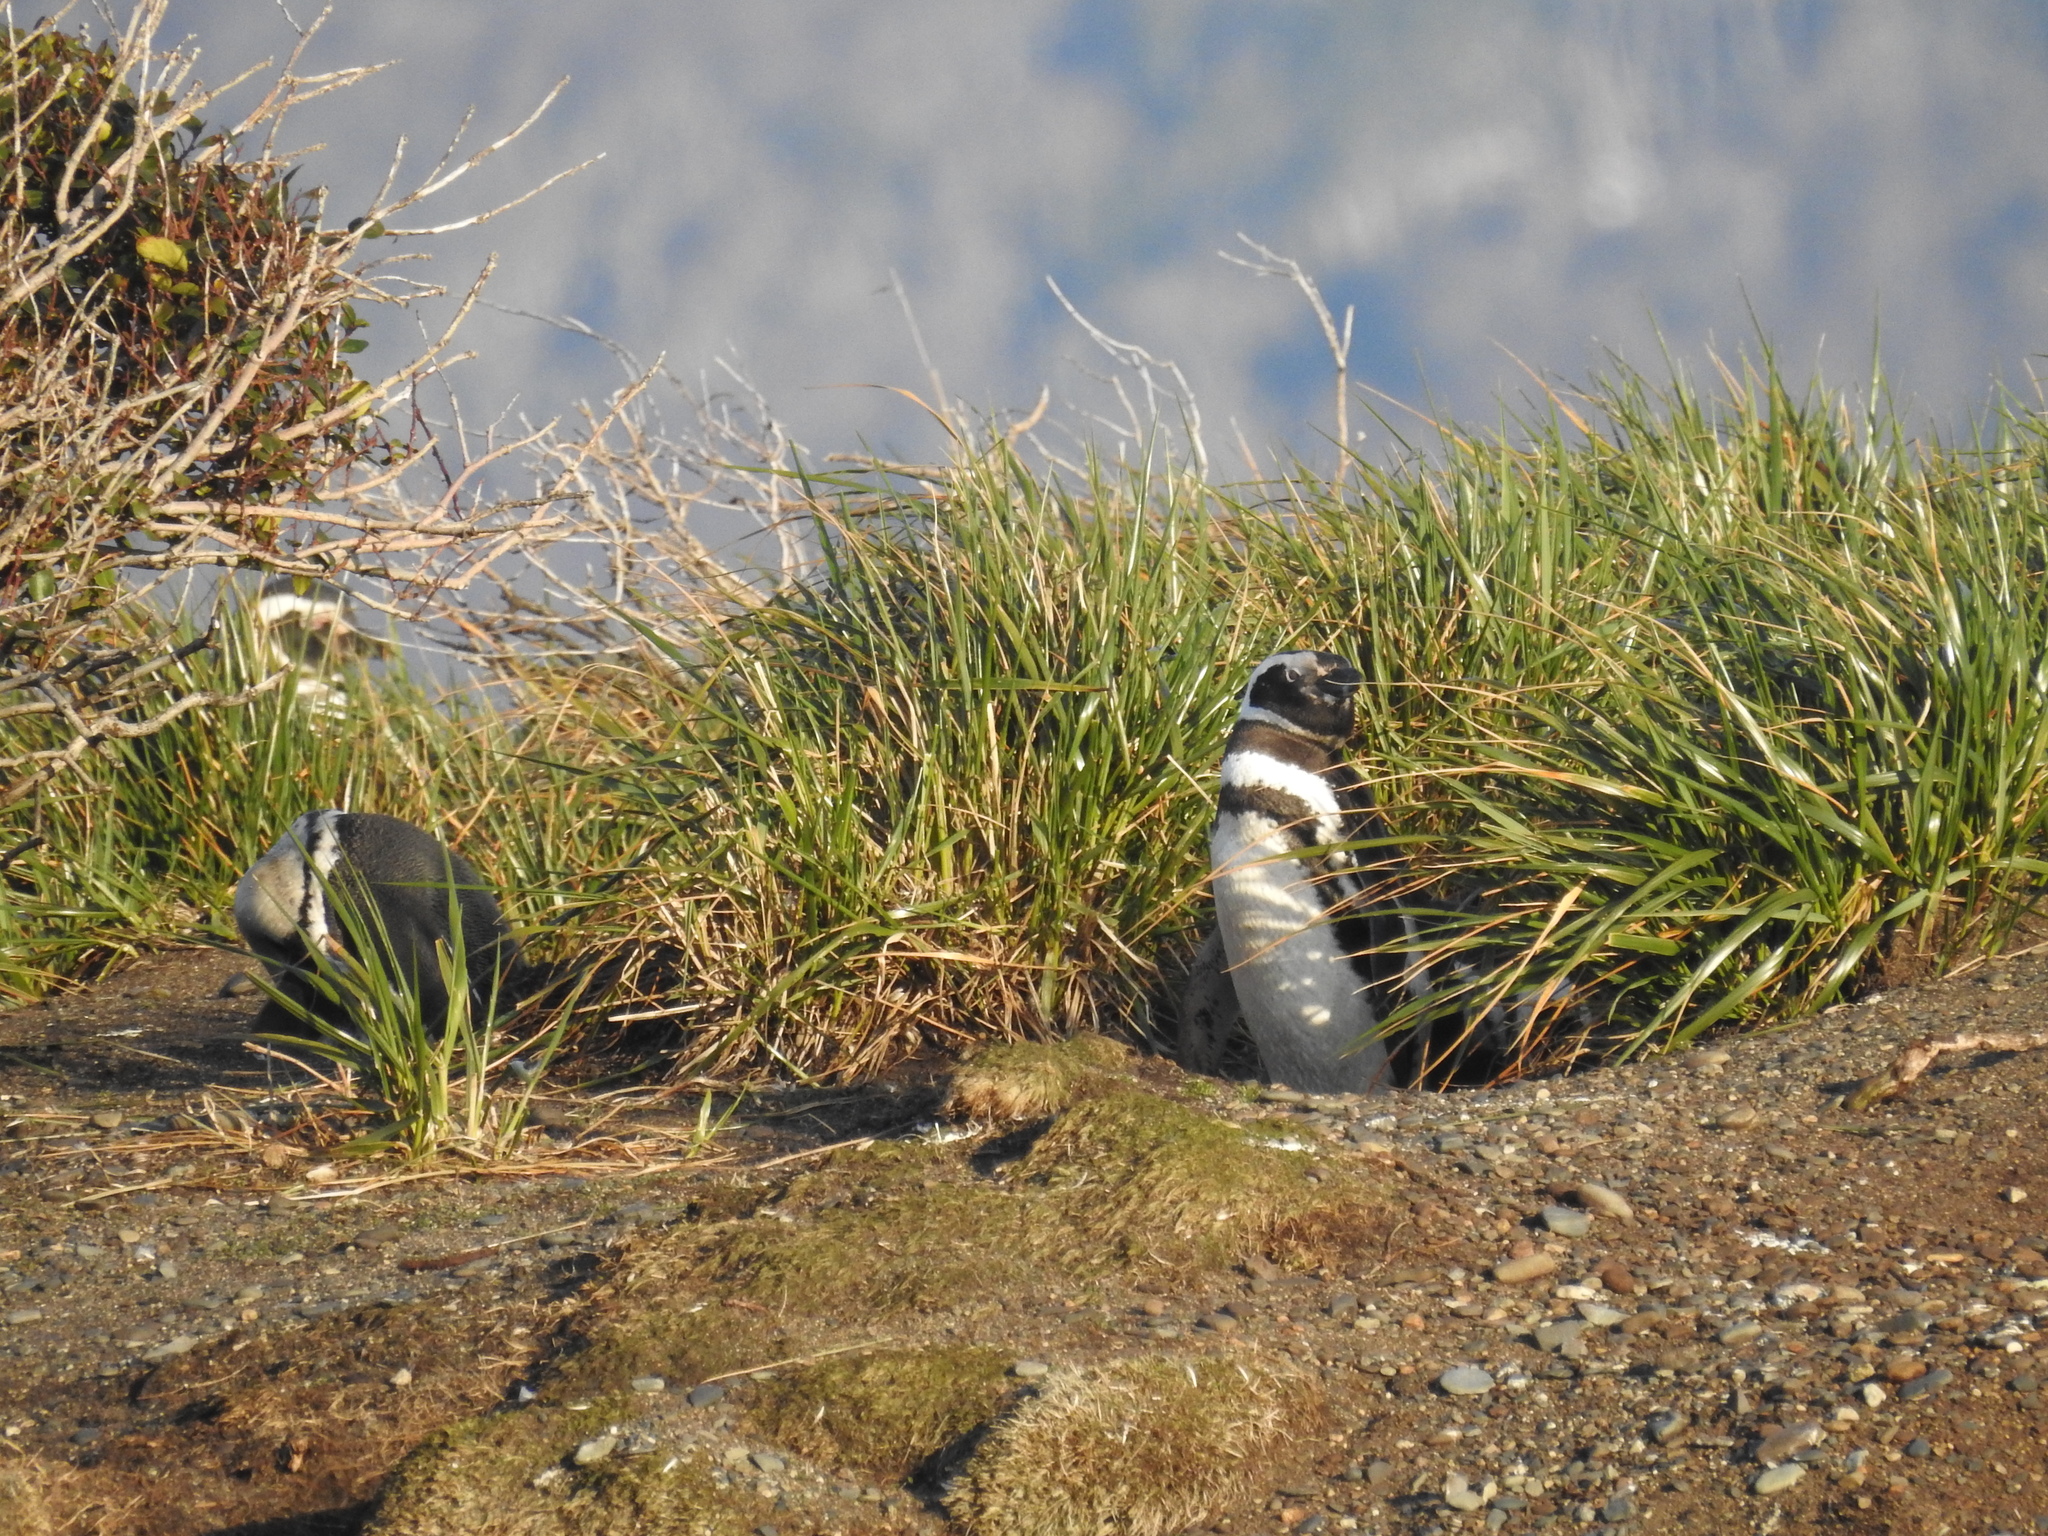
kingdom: Animalia
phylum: Chordata
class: Aves
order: Sphenisciformes
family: Spheniscidae
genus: Spheniscus
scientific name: Spheniscus magellanicus
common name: Magellanic penguin
